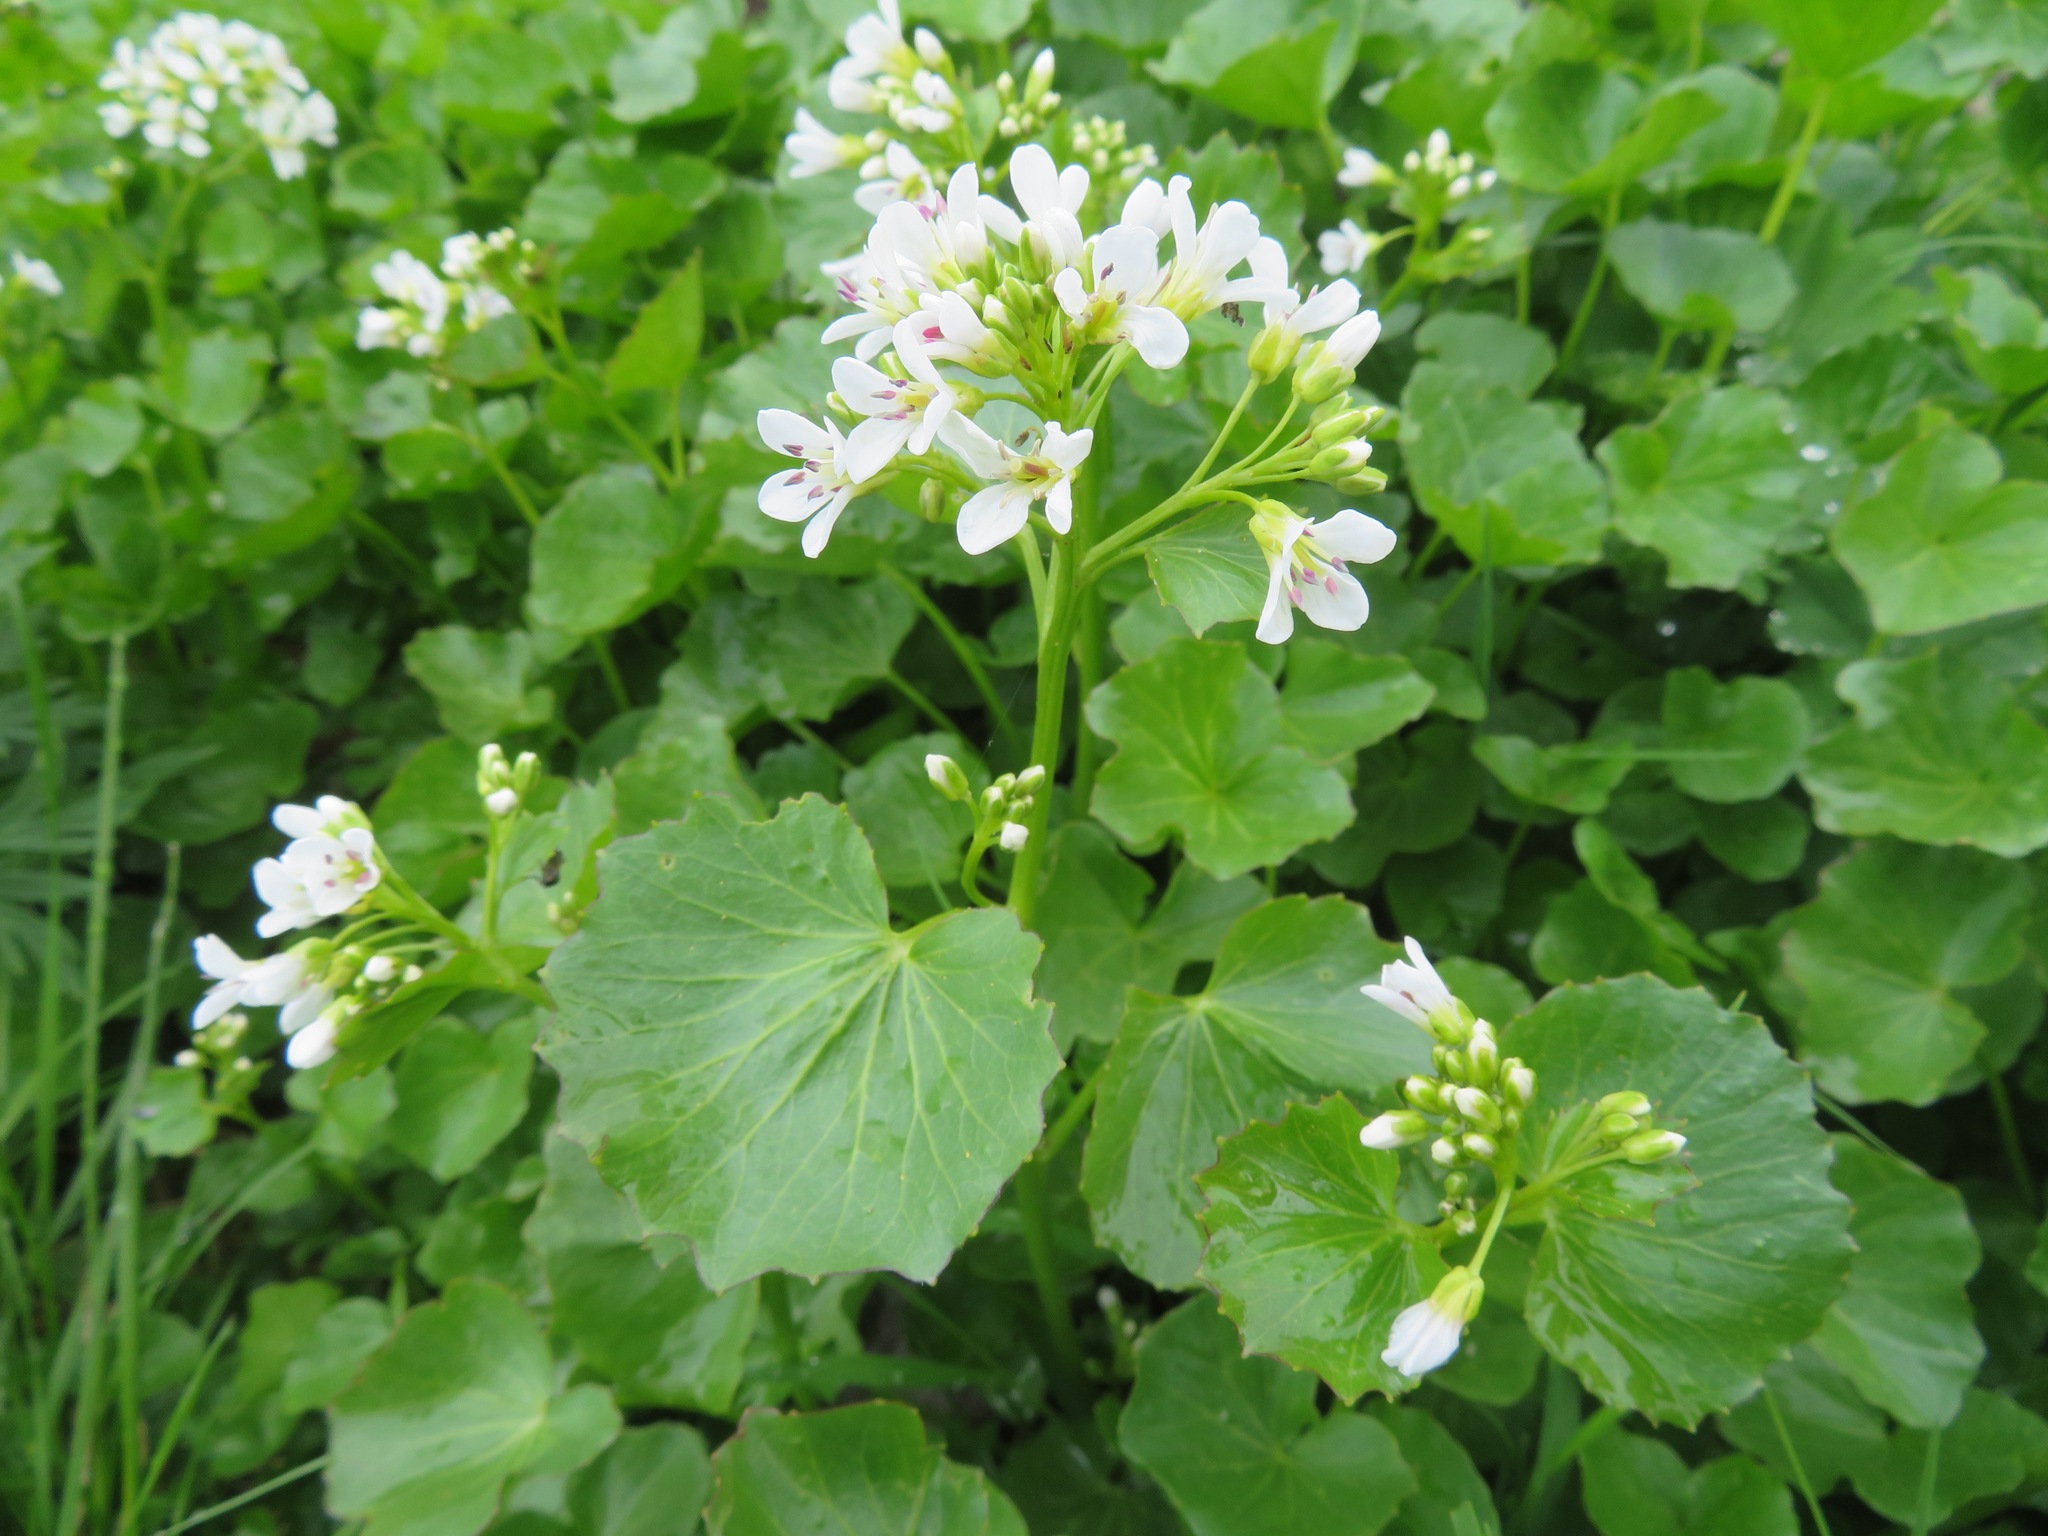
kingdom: Plantae
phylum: Tracheophyta
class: Magnoliopsida
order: Brassicales
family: Brassicaceae
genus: Cardamine
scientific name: Cardamine asarifolia
